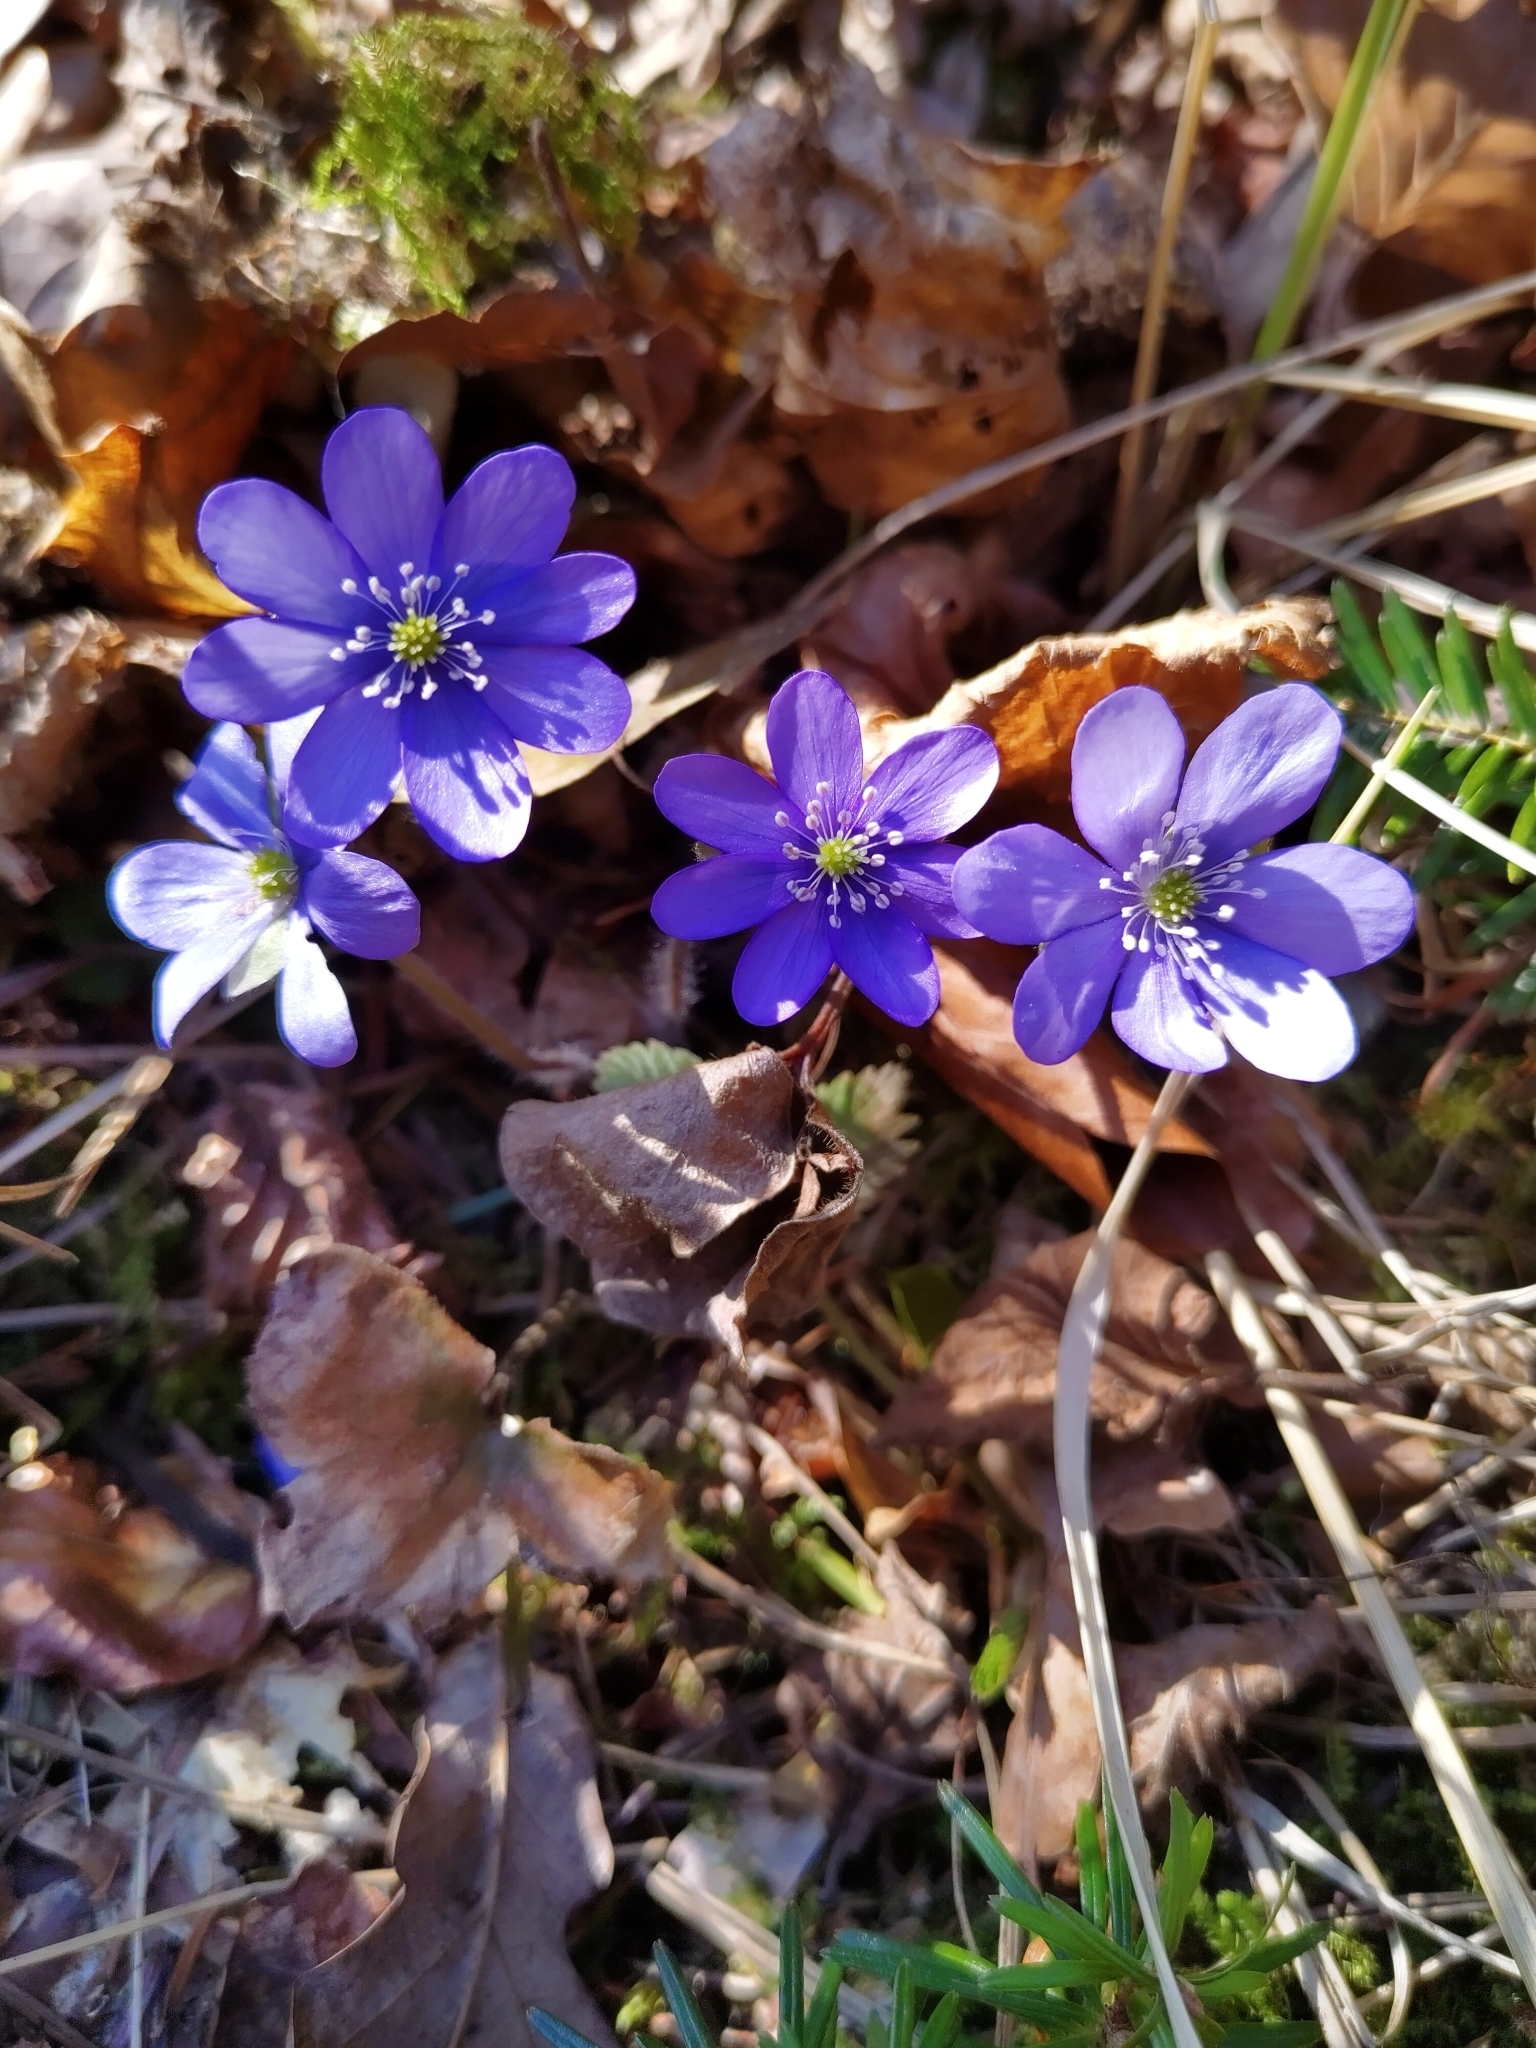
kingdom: Plantae
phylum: Tracheophyta
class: Magnoliopsida
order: Ranunculales
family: Ranunculaceae
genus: Hepatica
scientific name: Hepatica nobilis
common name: Liverleaf
